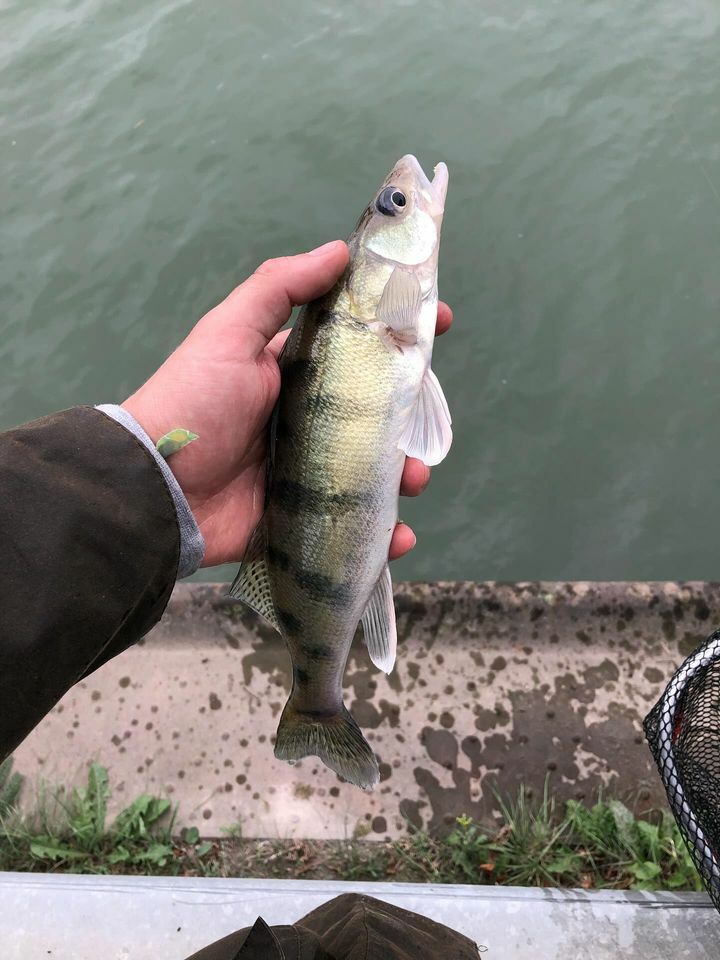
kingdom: Animalia
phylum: Chordata
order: Perciformes
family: Percidae
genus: Sander
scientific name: Sander volgensis
